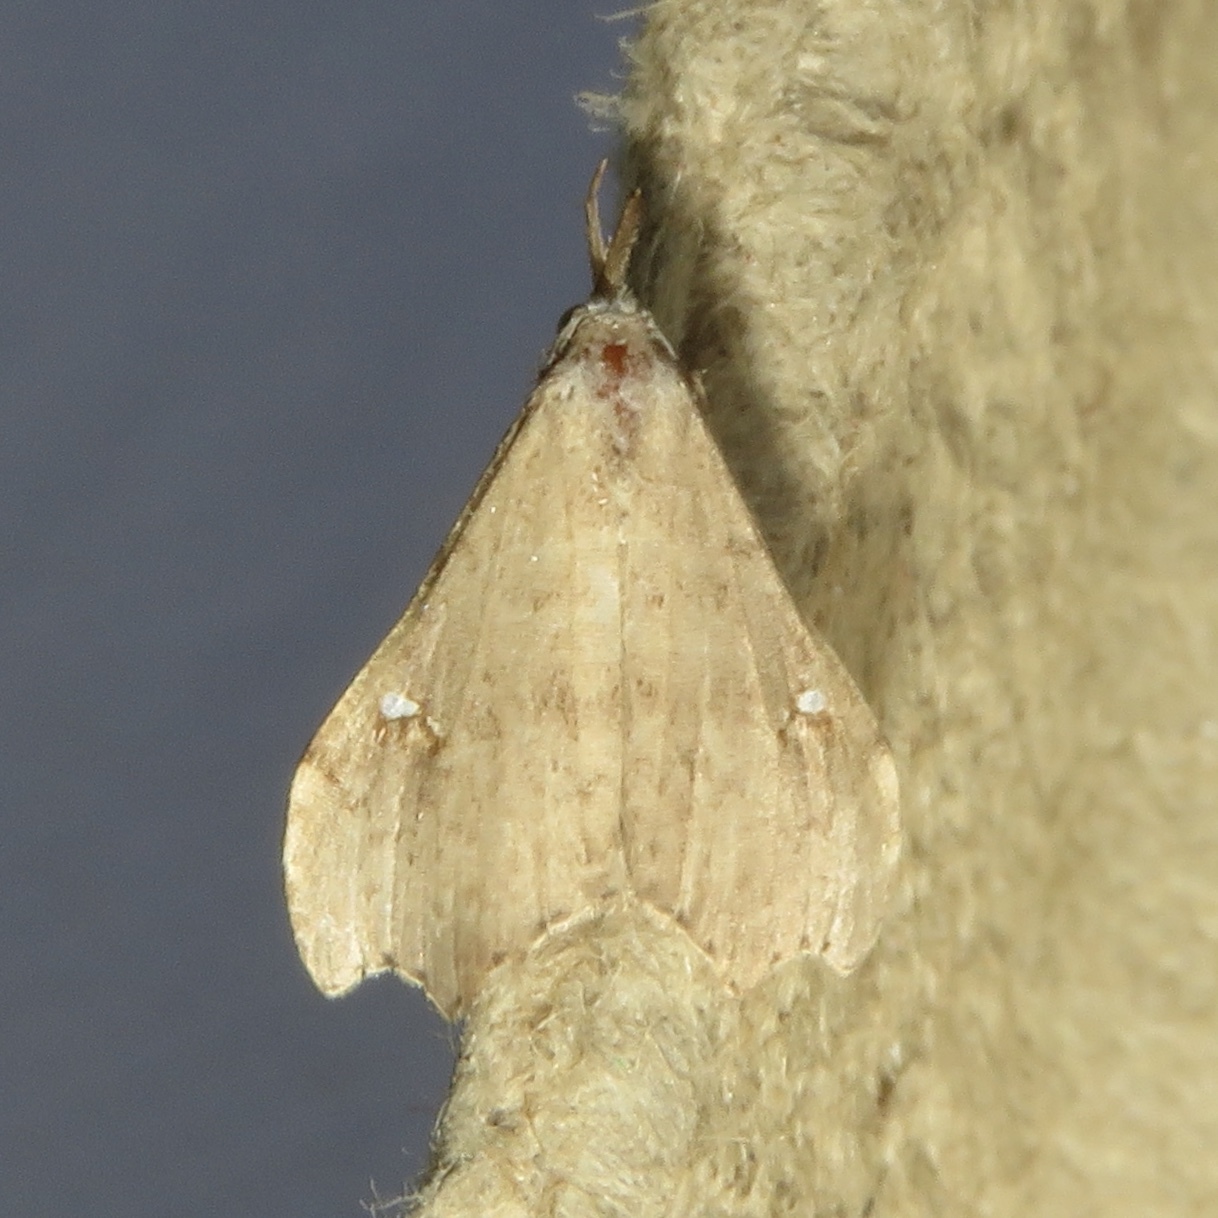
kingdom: Animalia
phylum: Arthropoda
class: Insecta
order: Lepidoptera
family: Erebidae
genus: Redectis
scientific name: Redectis vitrea
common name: White-spotted redectis
